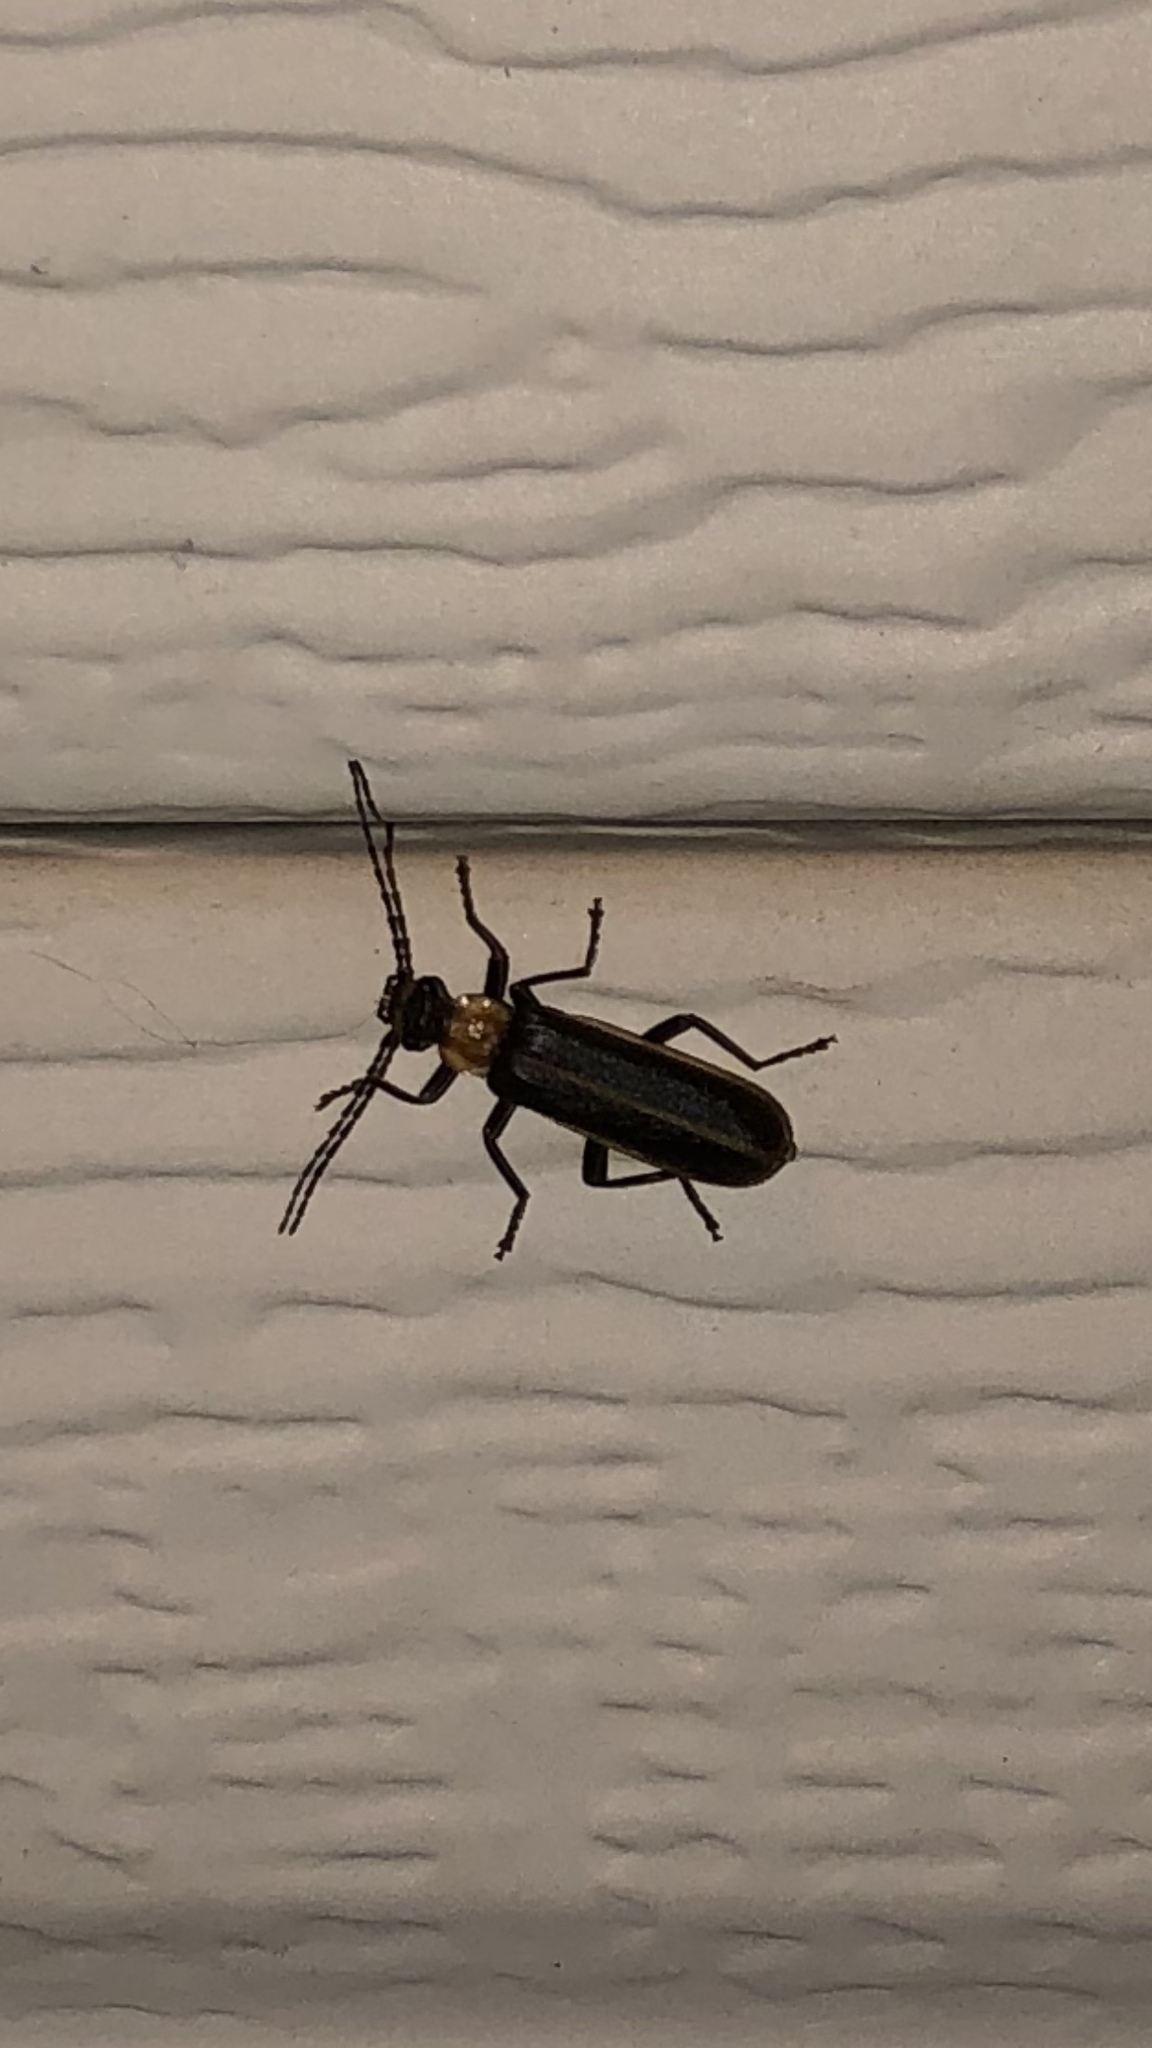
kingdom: Animalia
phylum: Arthropoda
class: Insecta
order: Coleoptera
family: Cantharidae
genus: Podabrus
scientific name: Podabrus flavicollis
